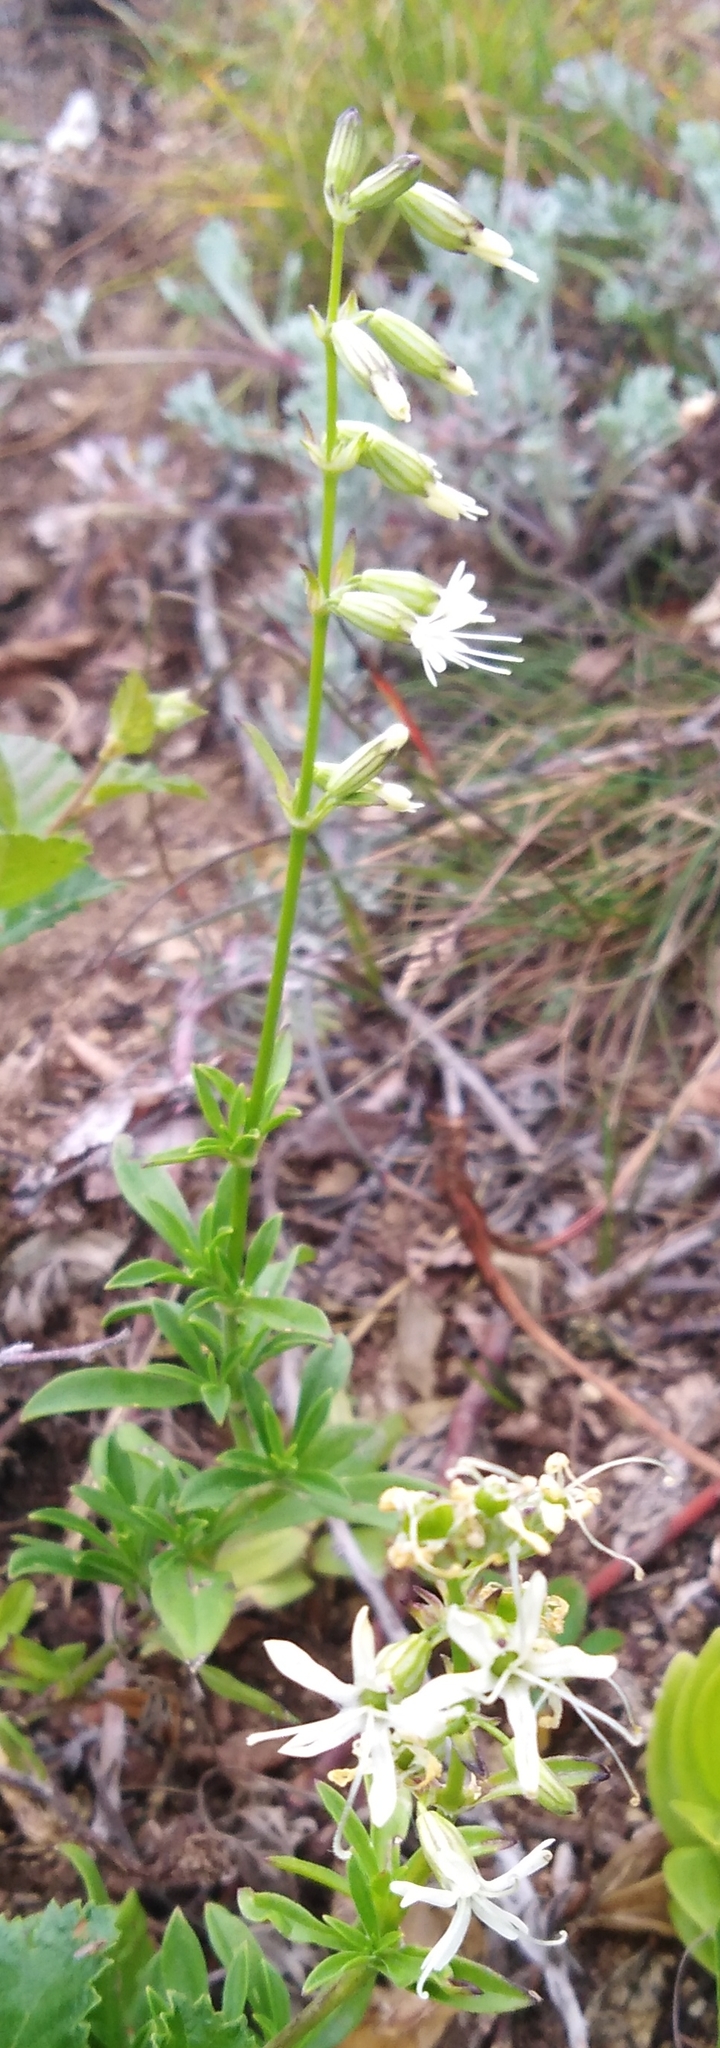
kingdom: Plantae
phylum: Tracheophyta
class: Magnoliopsida
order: Caryophyllales
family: Caryophyllaceae
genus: Silene
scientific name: Silene foliosa
